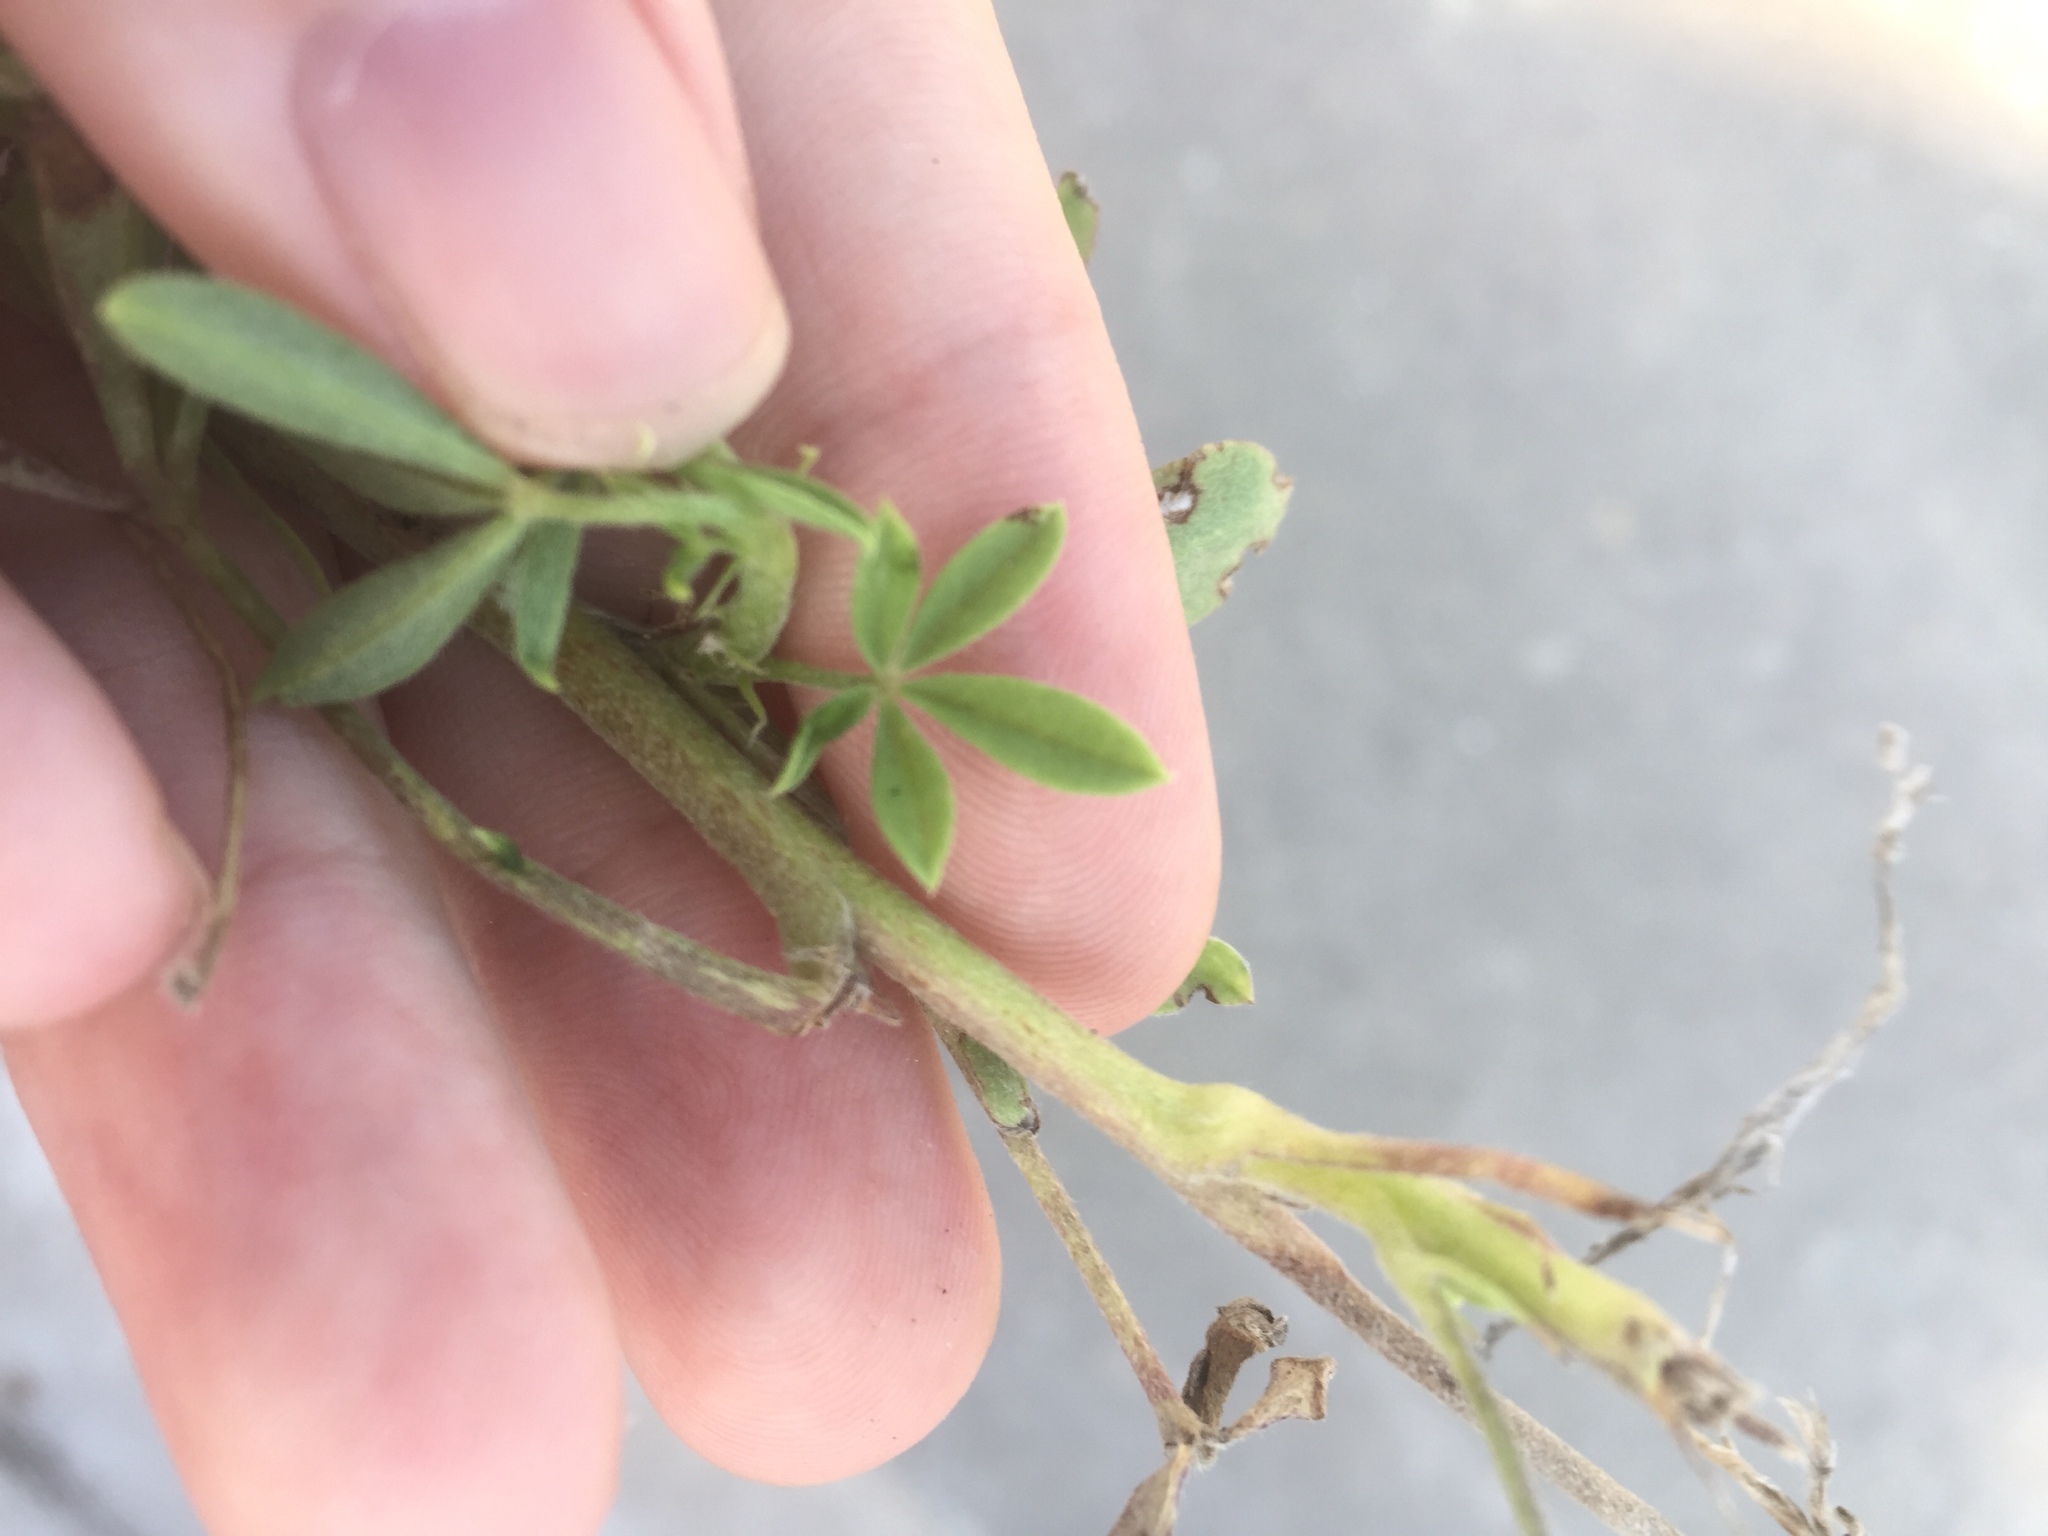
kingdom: Plantae
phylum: Tracheophyta
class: Magnoliopsida
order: Fabales
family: Fabaceae
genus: Lupinus
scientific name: Lupinus texensis
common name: Texas bluebonnet
